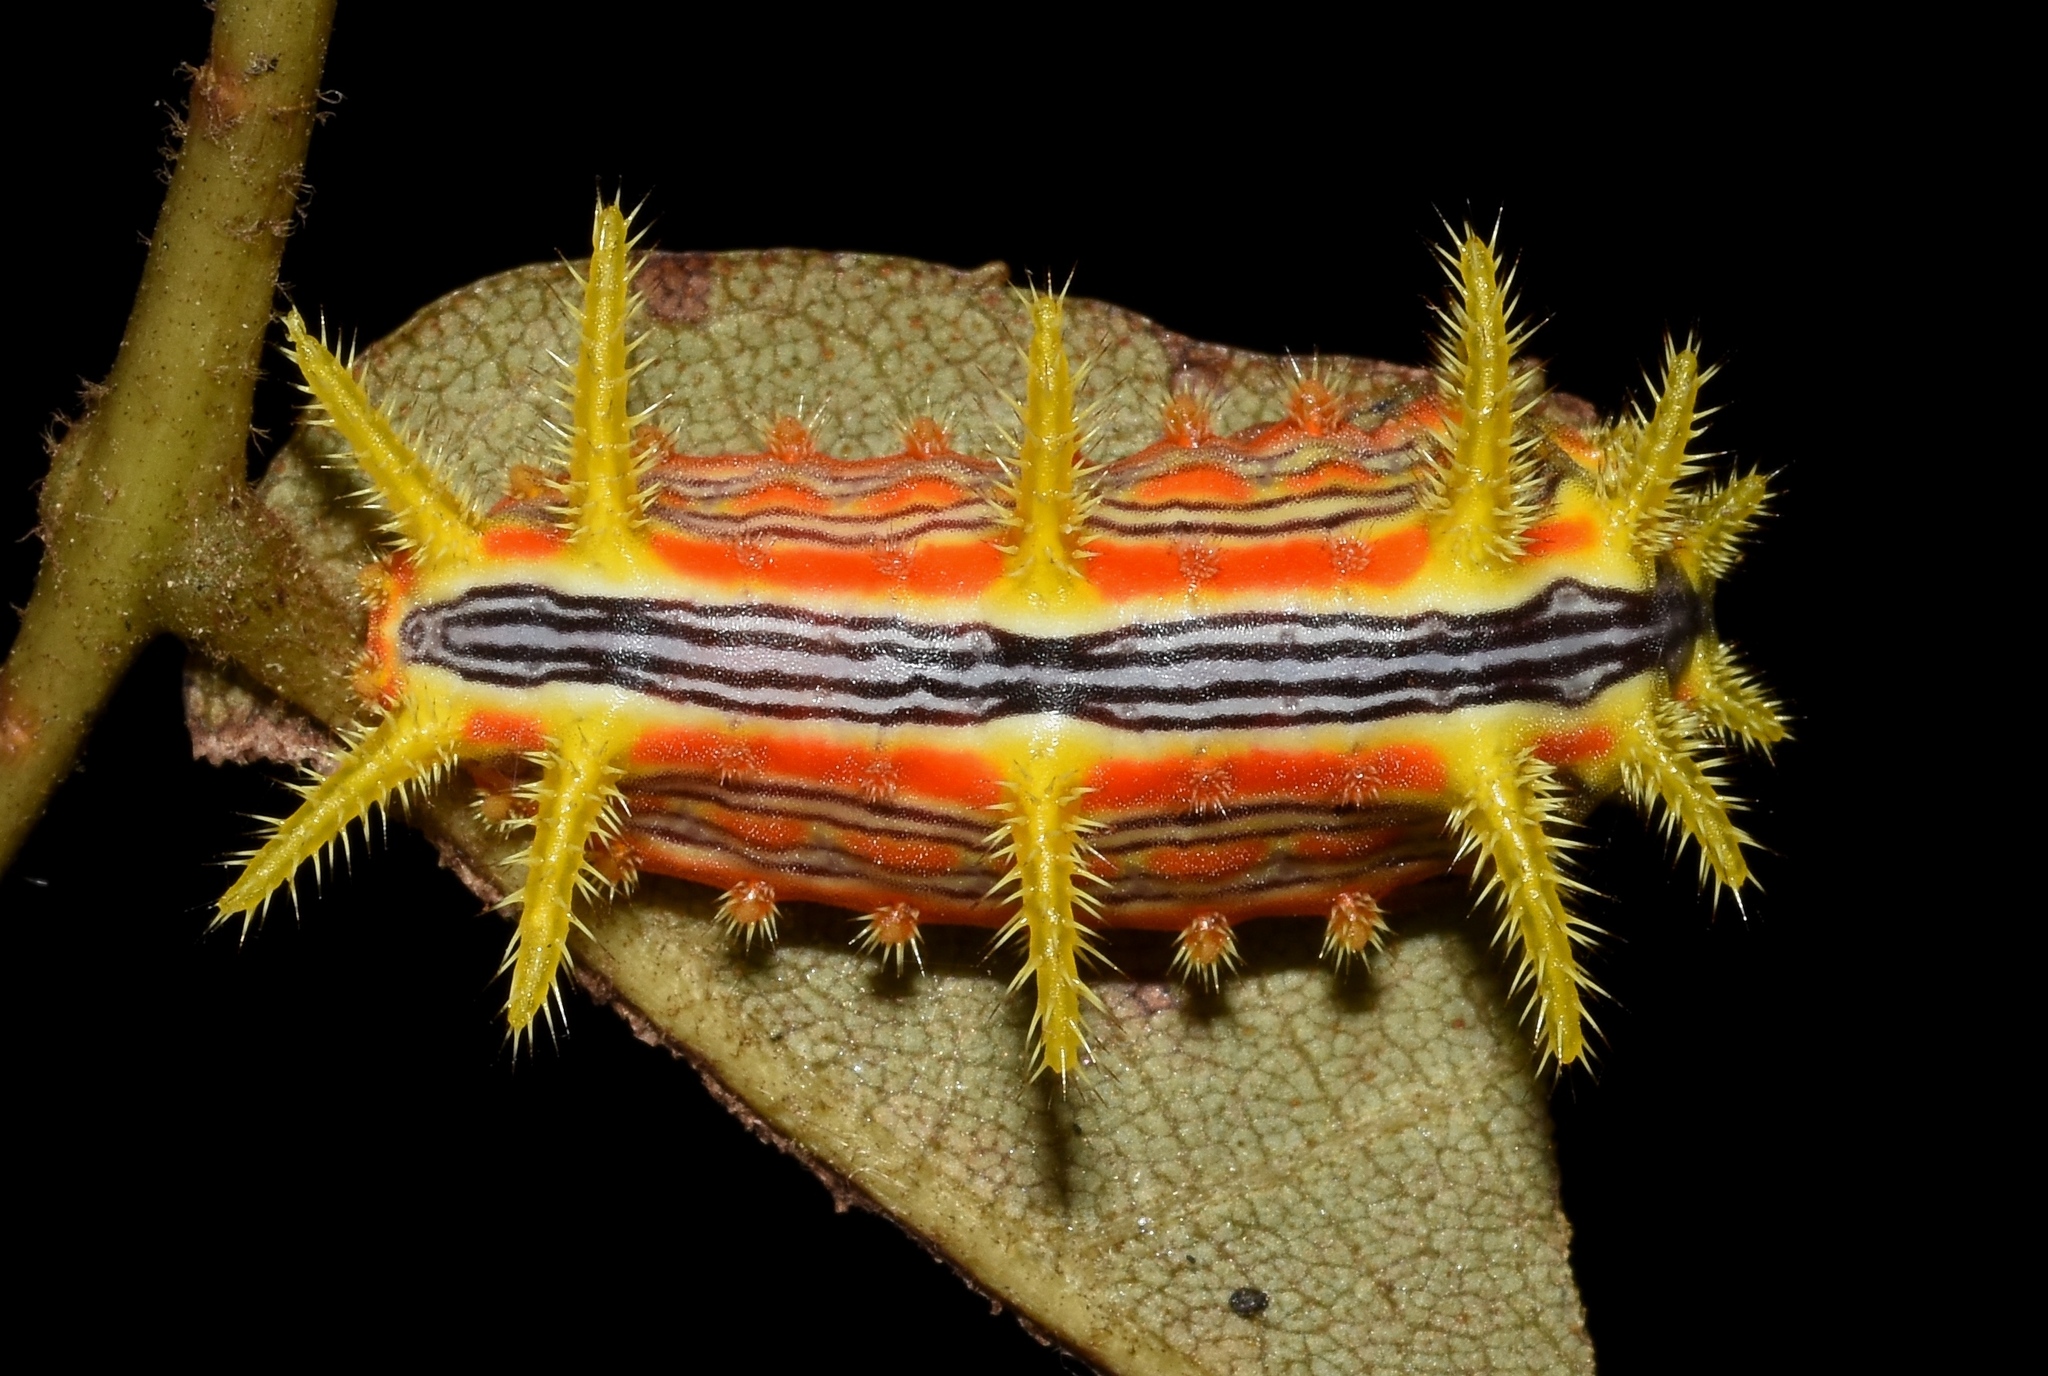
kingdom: Animalia
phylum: Arthropoda
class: Insecta
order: Lepidoptera
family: Limacodidae
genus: Parasa
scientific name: Parasa indetermina
